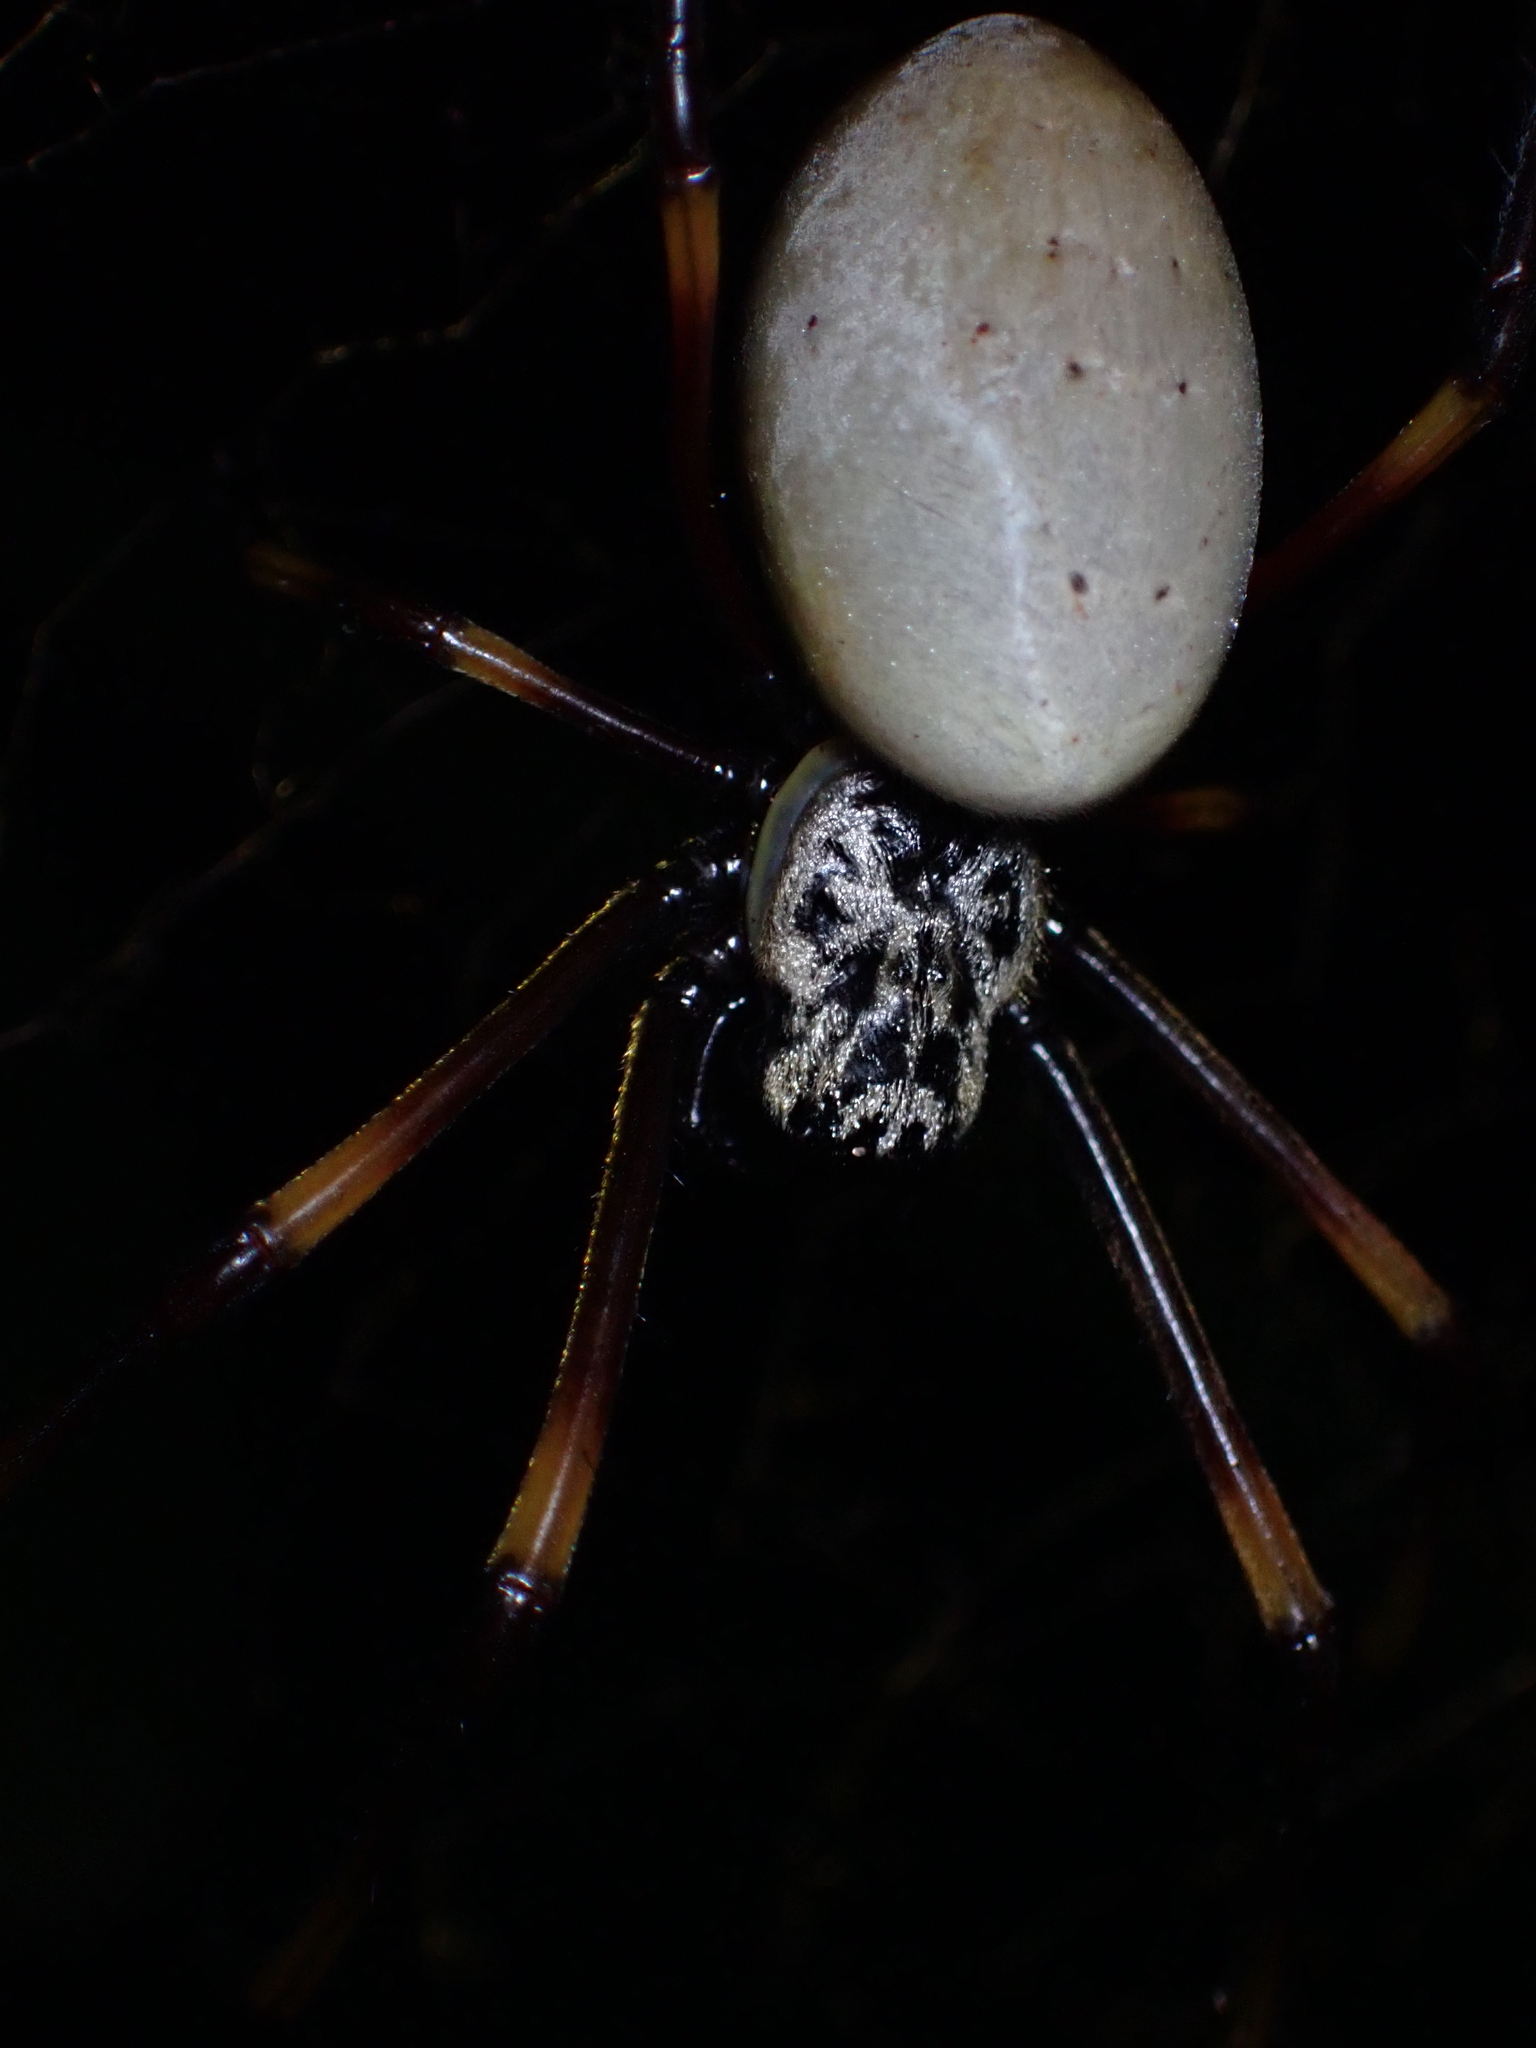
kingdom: Animalia
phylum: Arthropoda
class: Arachnida
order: Araneae
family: Araneidae
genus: Trichonephila
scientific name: Trichonephila plumipes
